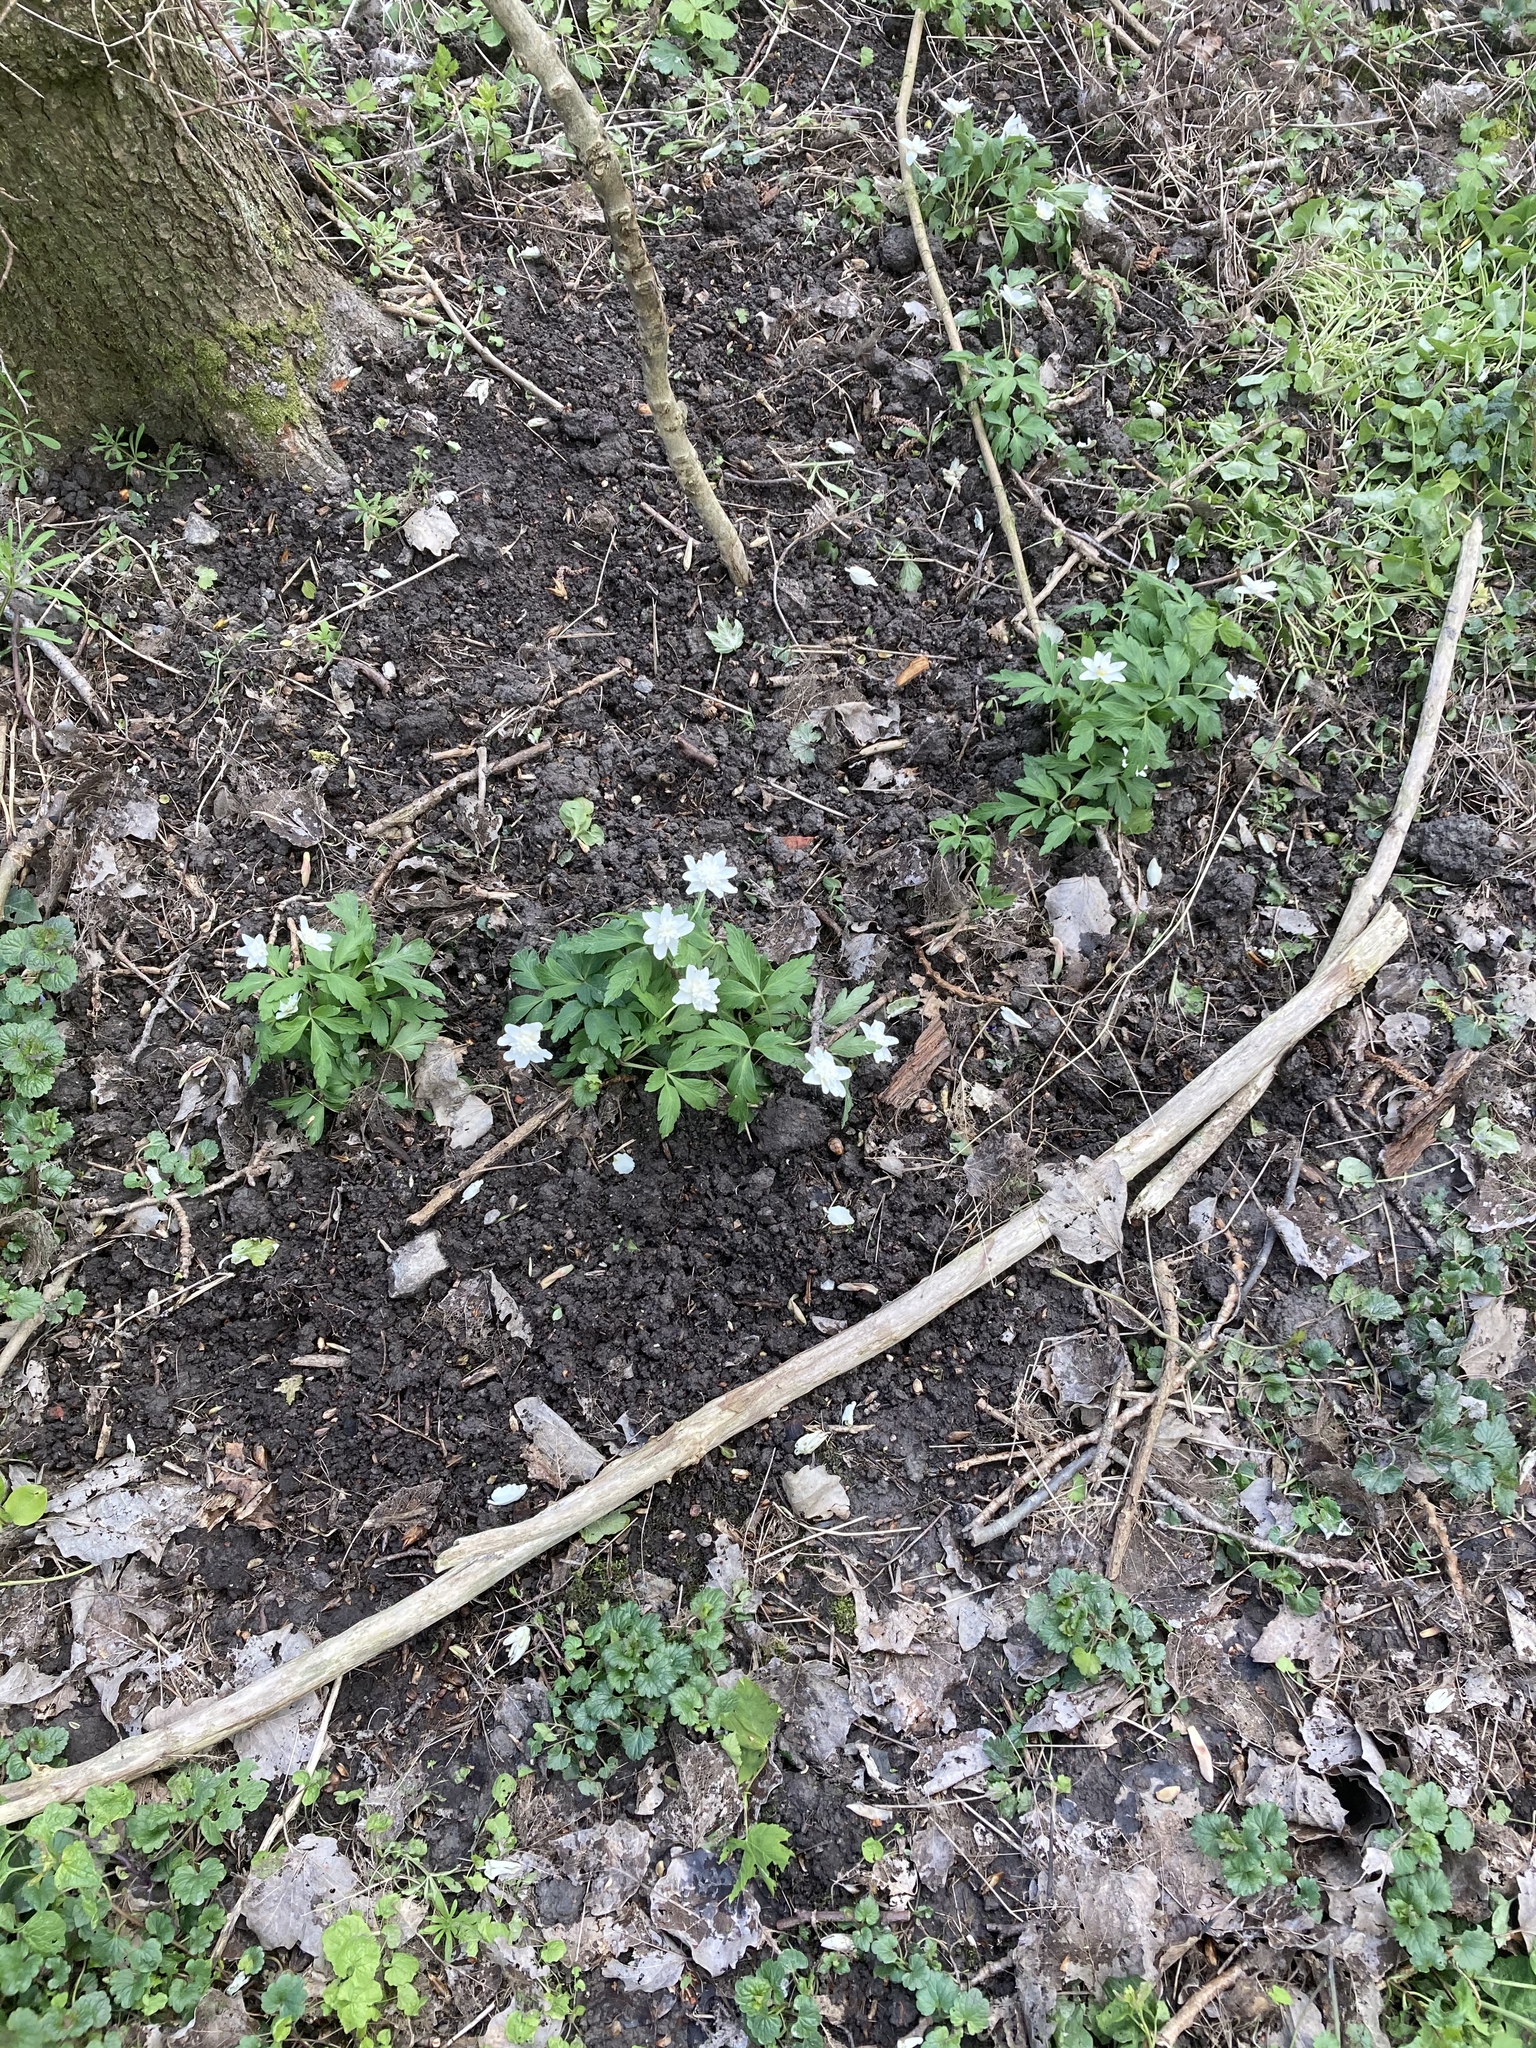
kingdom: Plantae
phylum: Tracheophyta
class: Magnoliopsida
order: Ranunculales
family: Ranunculaceae
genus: Anemone
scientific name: Anemone nemorosa
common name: Wood anemone
